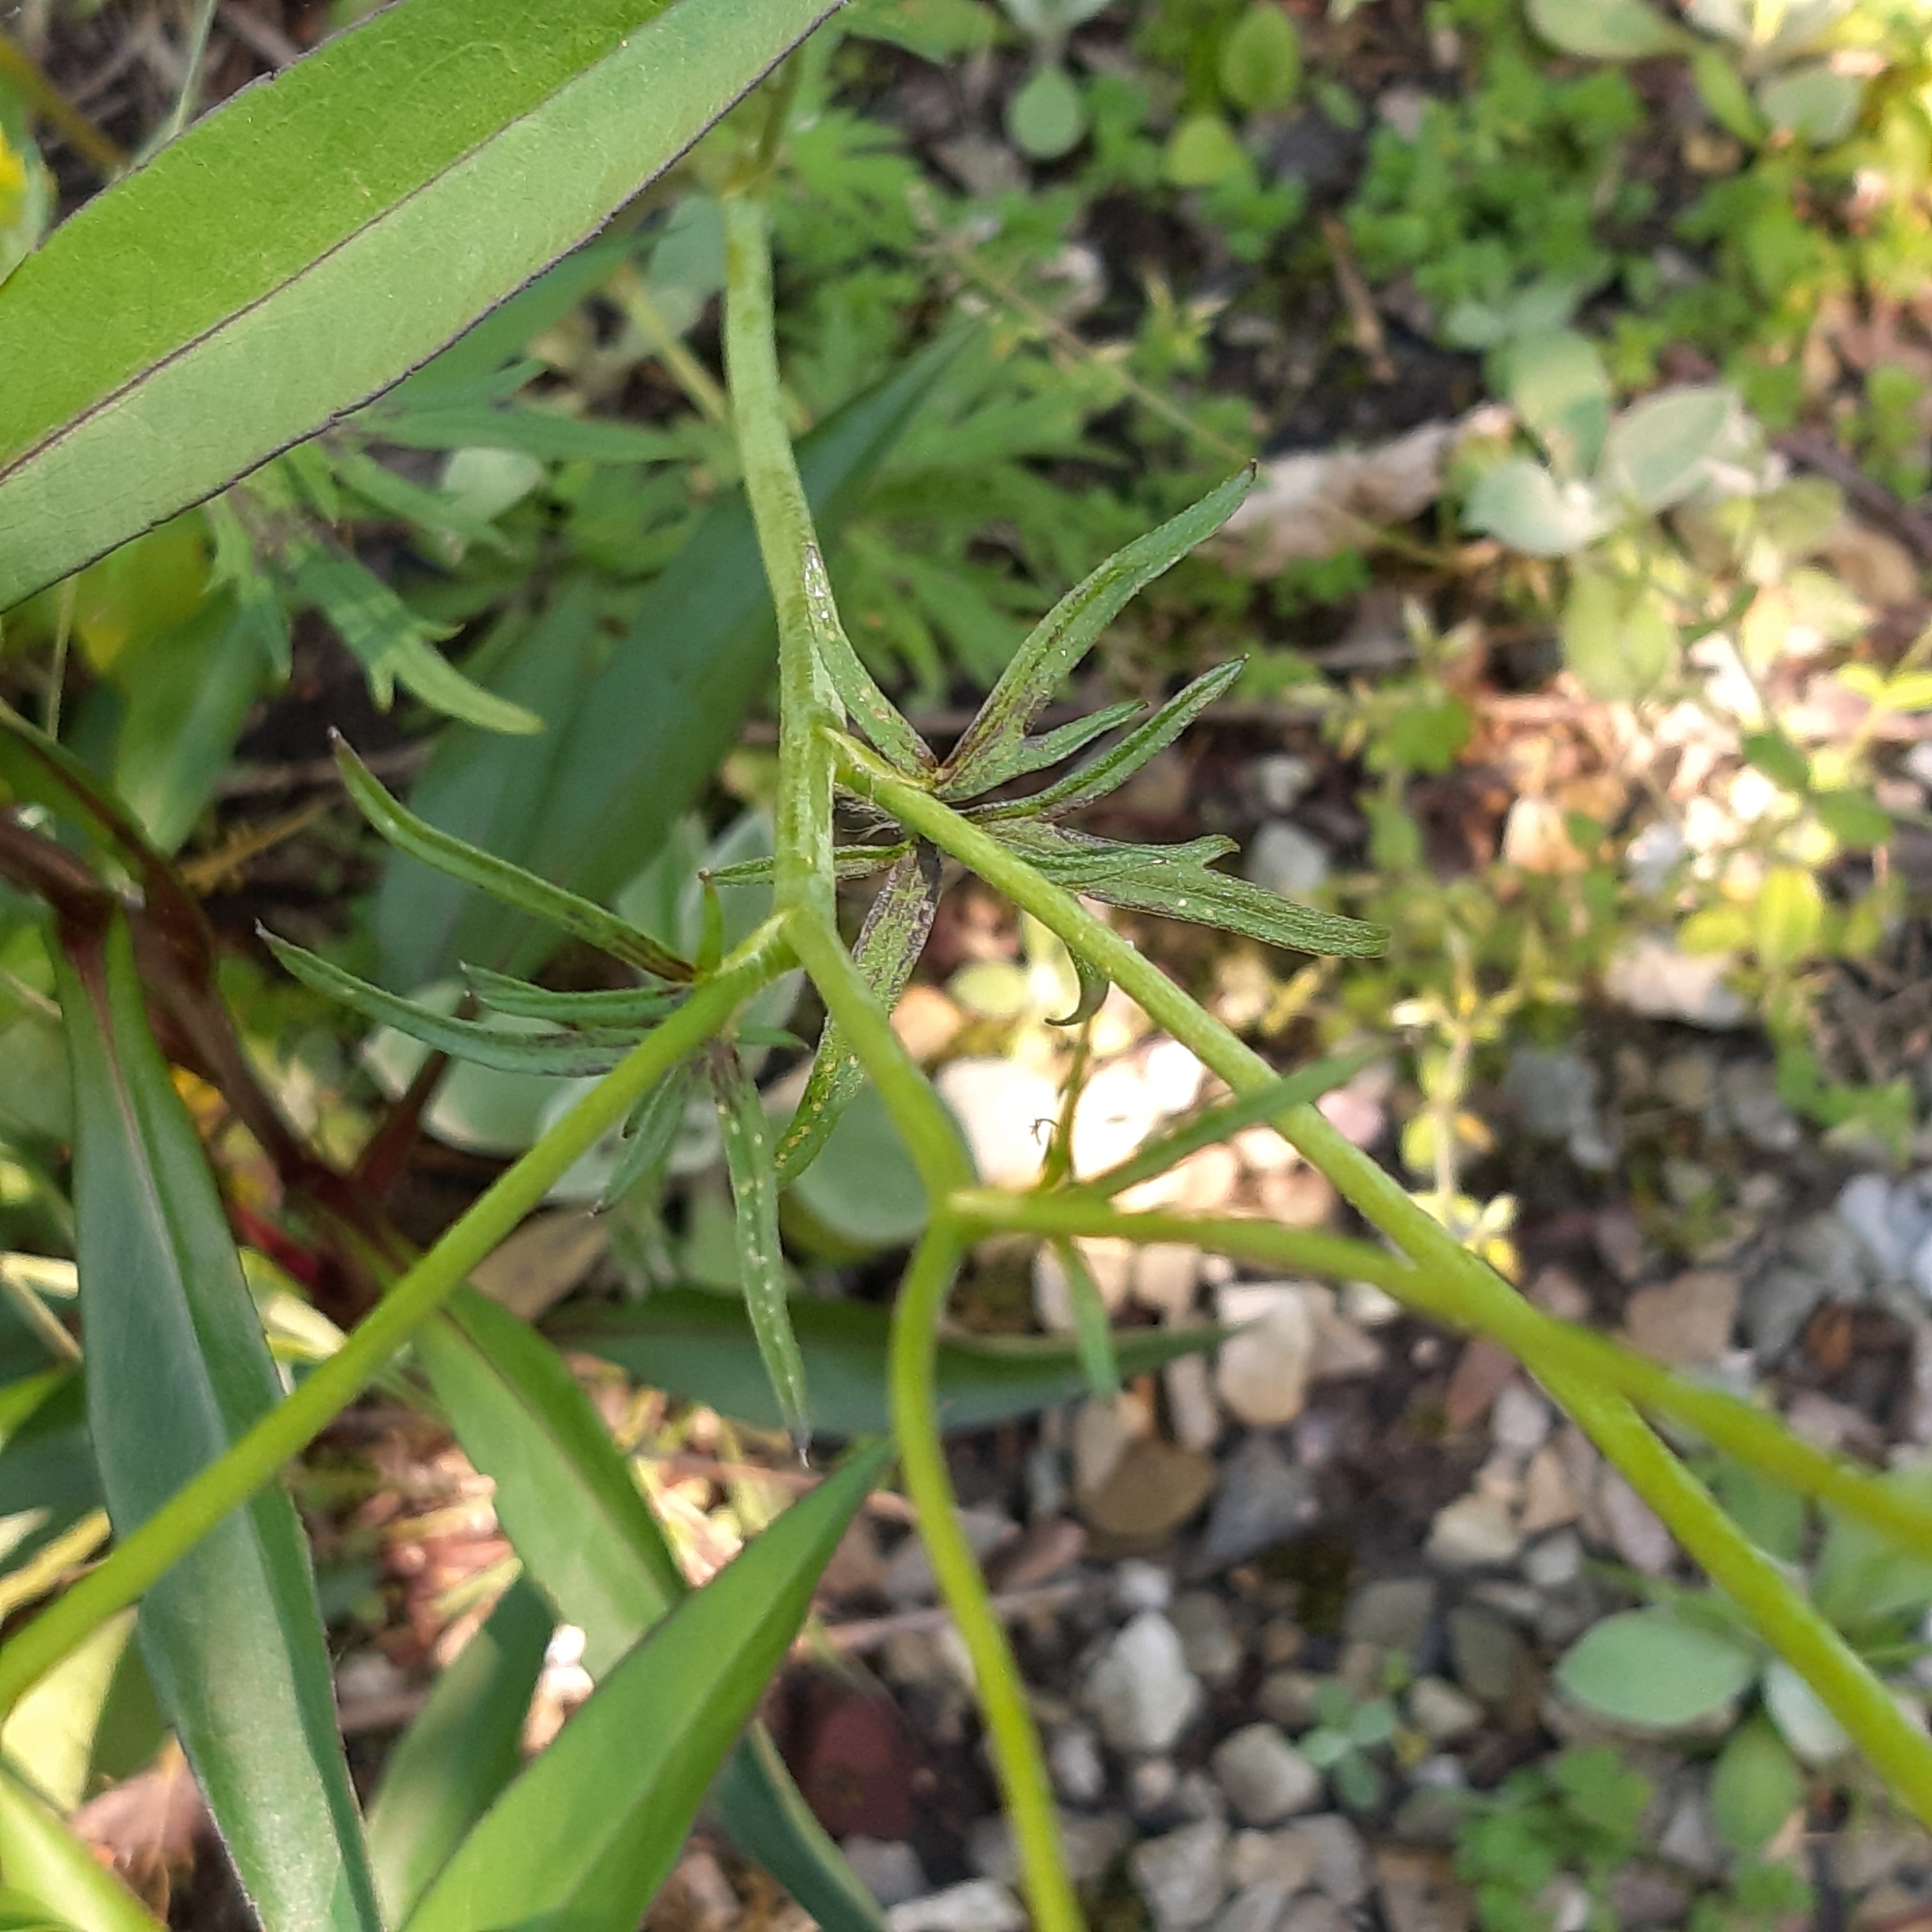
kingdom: Plantae
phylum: Tracheophyta
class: Magnoliopsida
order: Ranunculales
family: Ranunculaceae
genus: Ranunculus
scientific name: Ranunculus acris
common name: Meadow buttercup
